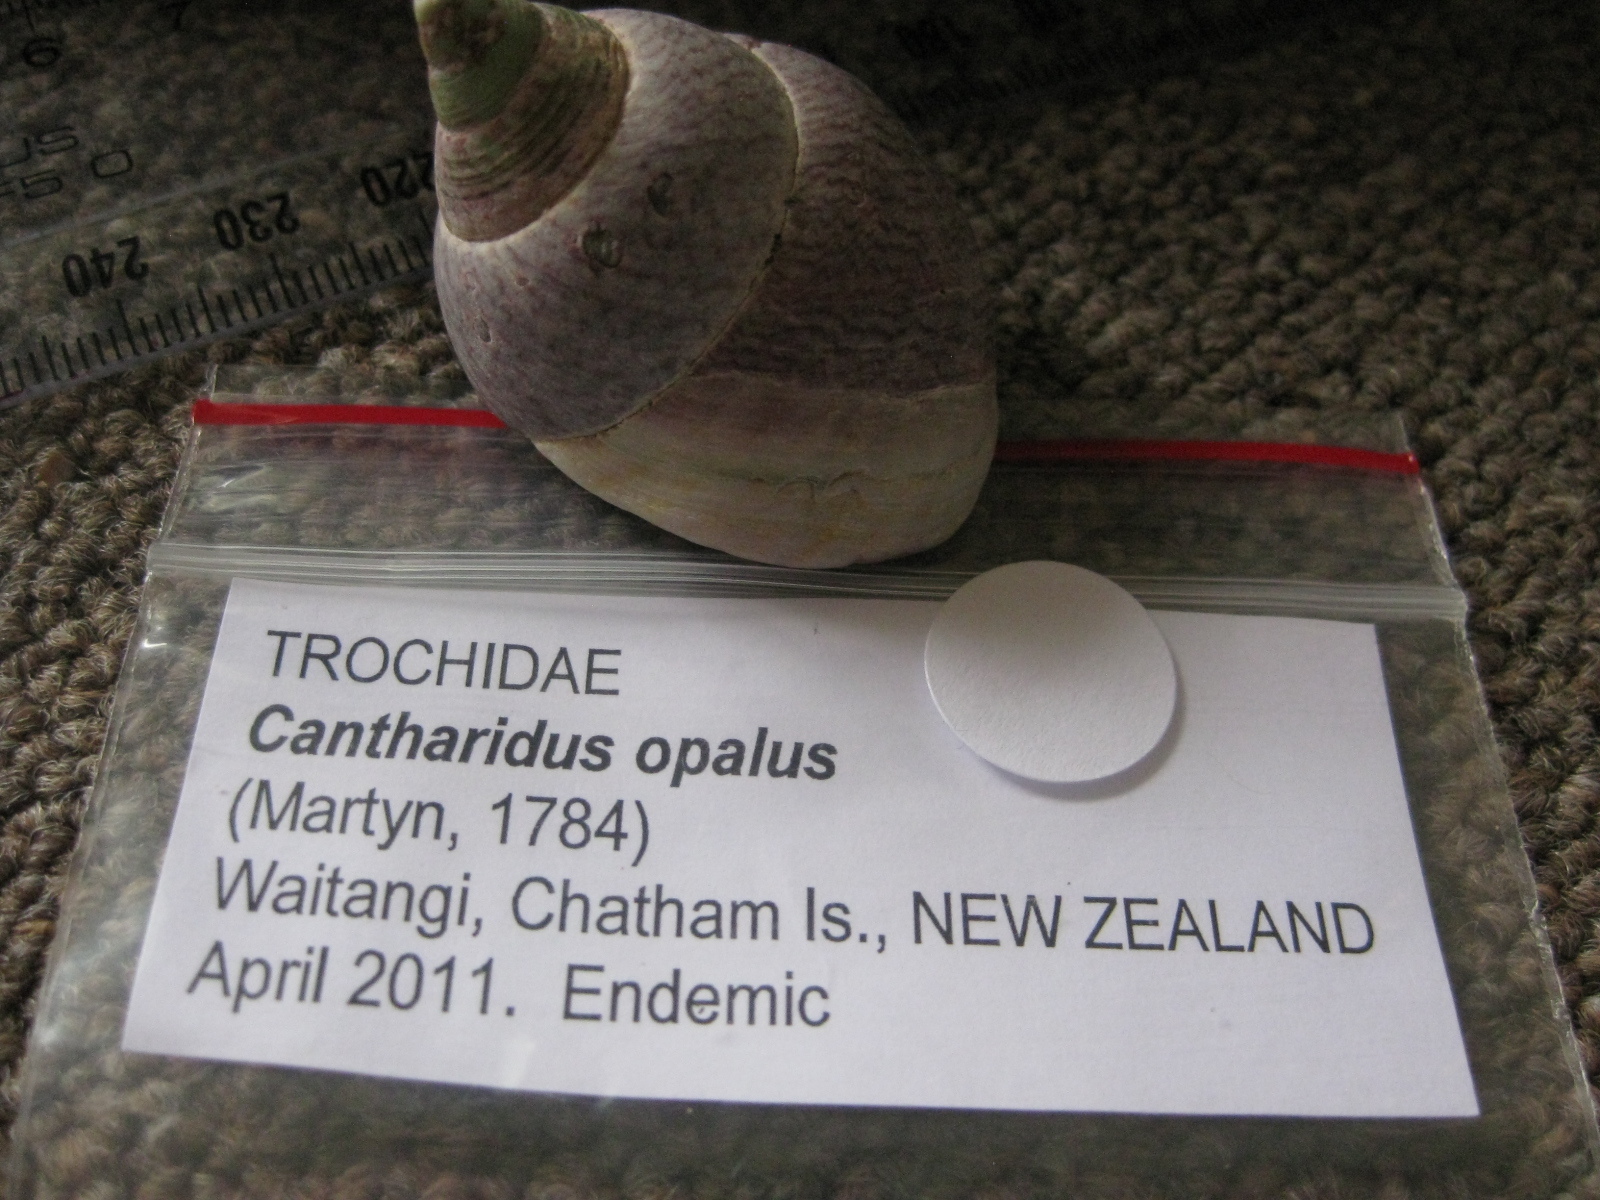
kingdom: Animalia
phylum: Mollusca
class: Gastropoda
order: Trochida
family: Trochidae
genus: Cantharidus
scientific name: Cantharidus opalus
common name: Opal jewel topsnail
